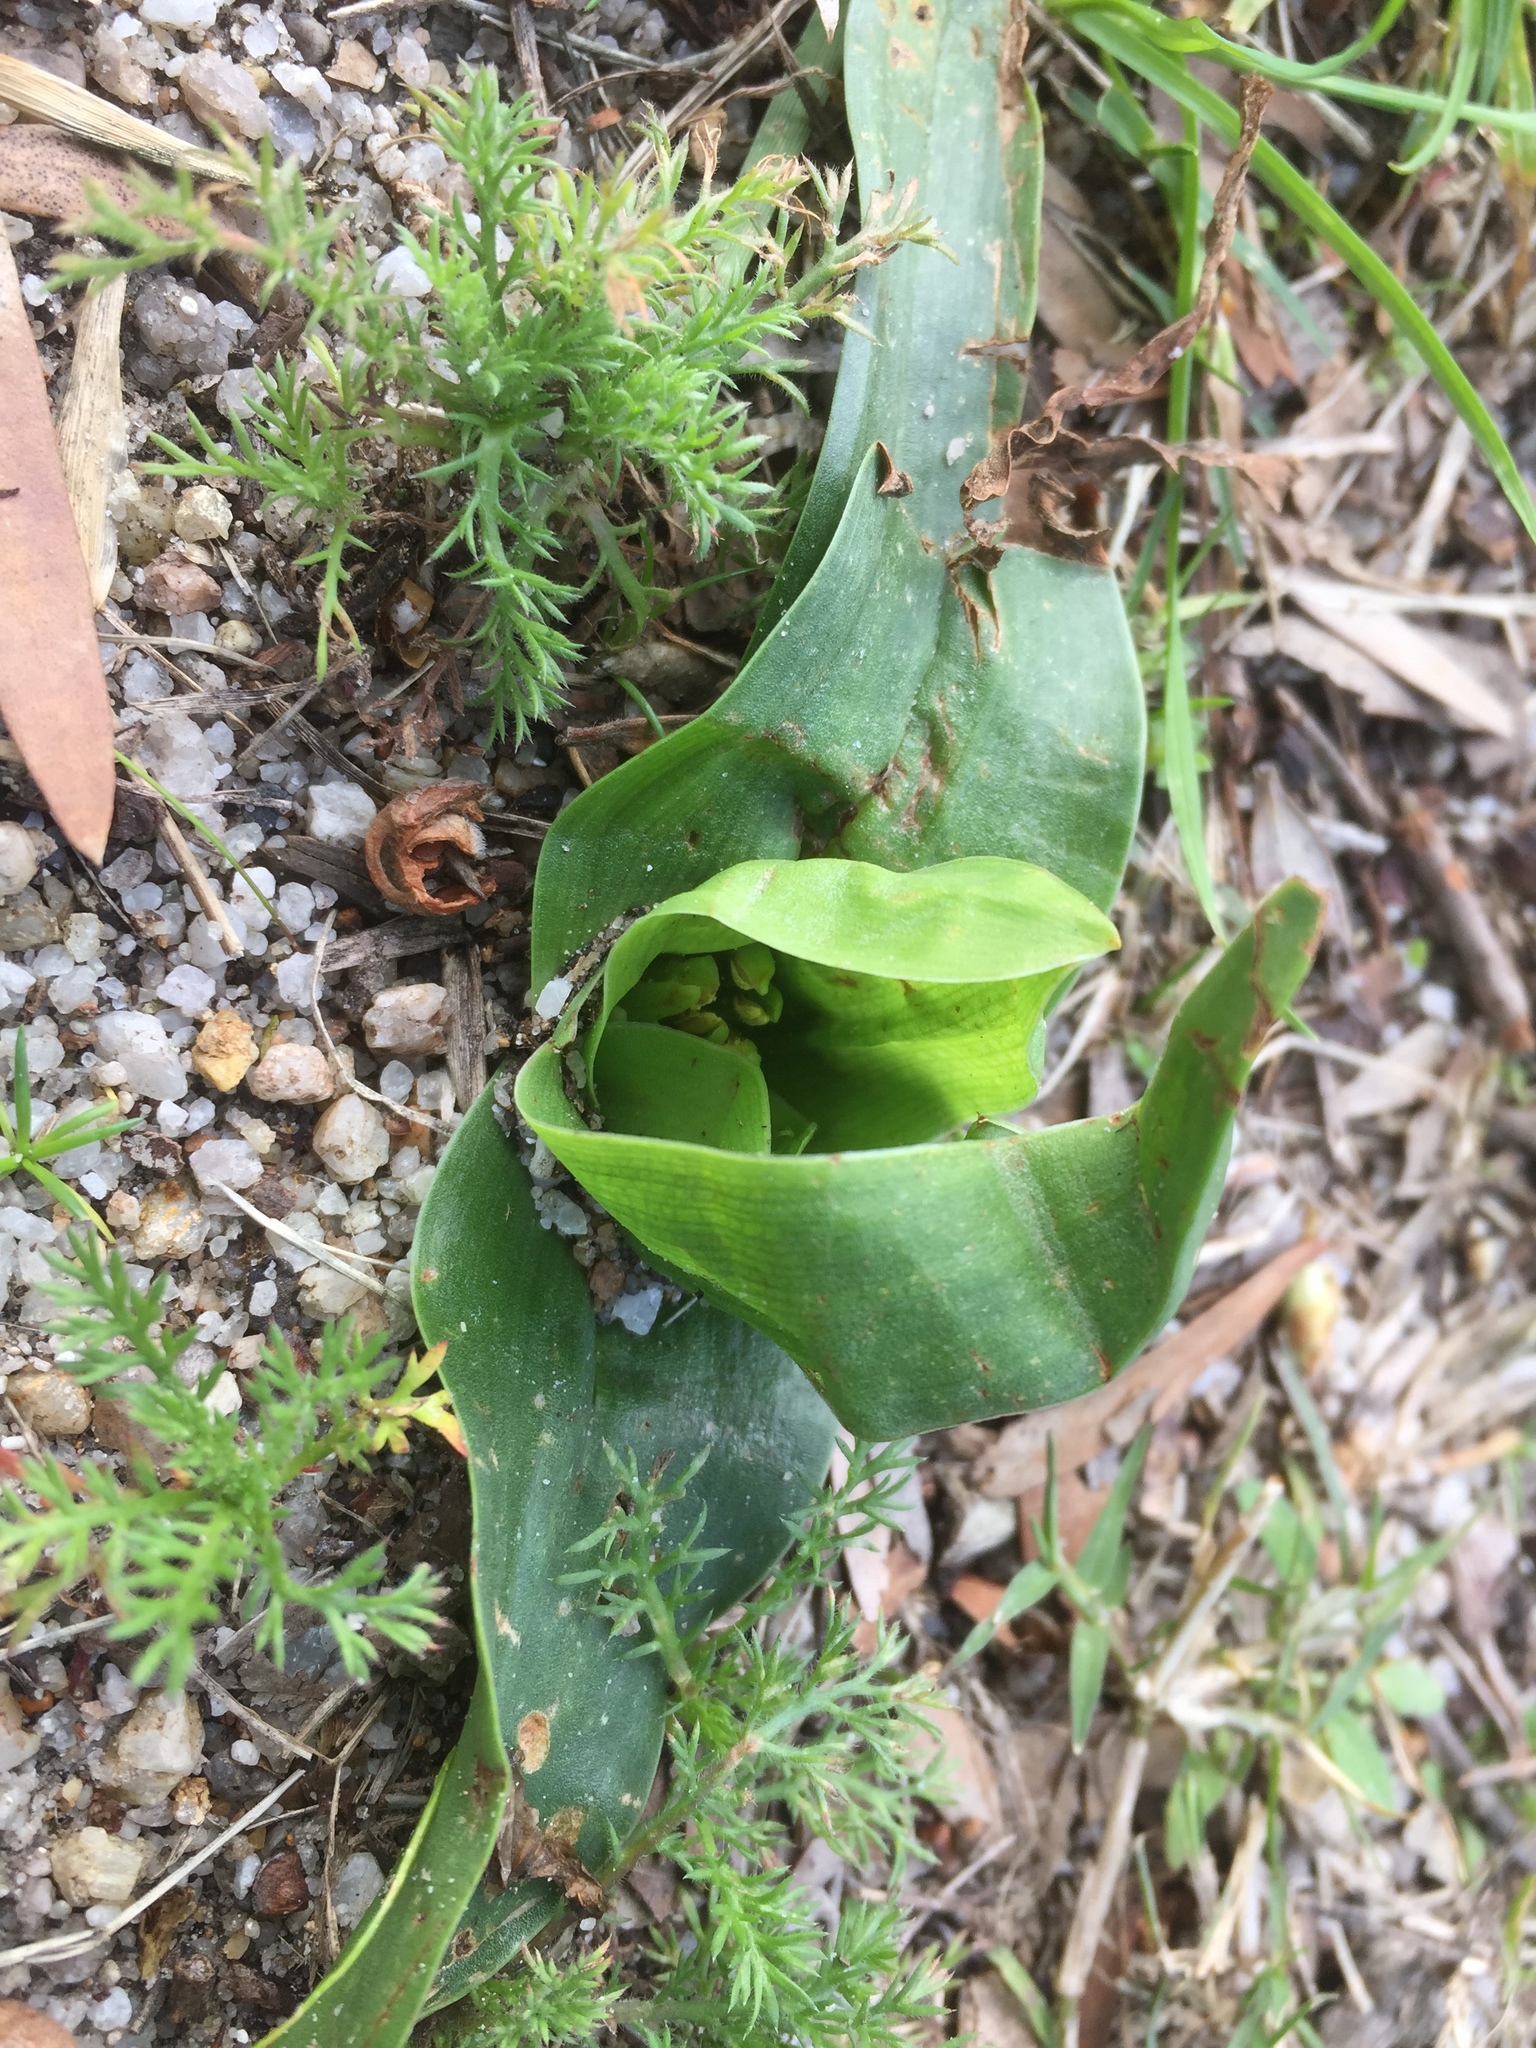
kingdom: Plantae
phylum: Tracheophyta
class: Liliopsida
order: Liliales
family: Colchicaceae
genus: Colchicum
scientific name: Colchicum eucomoides
